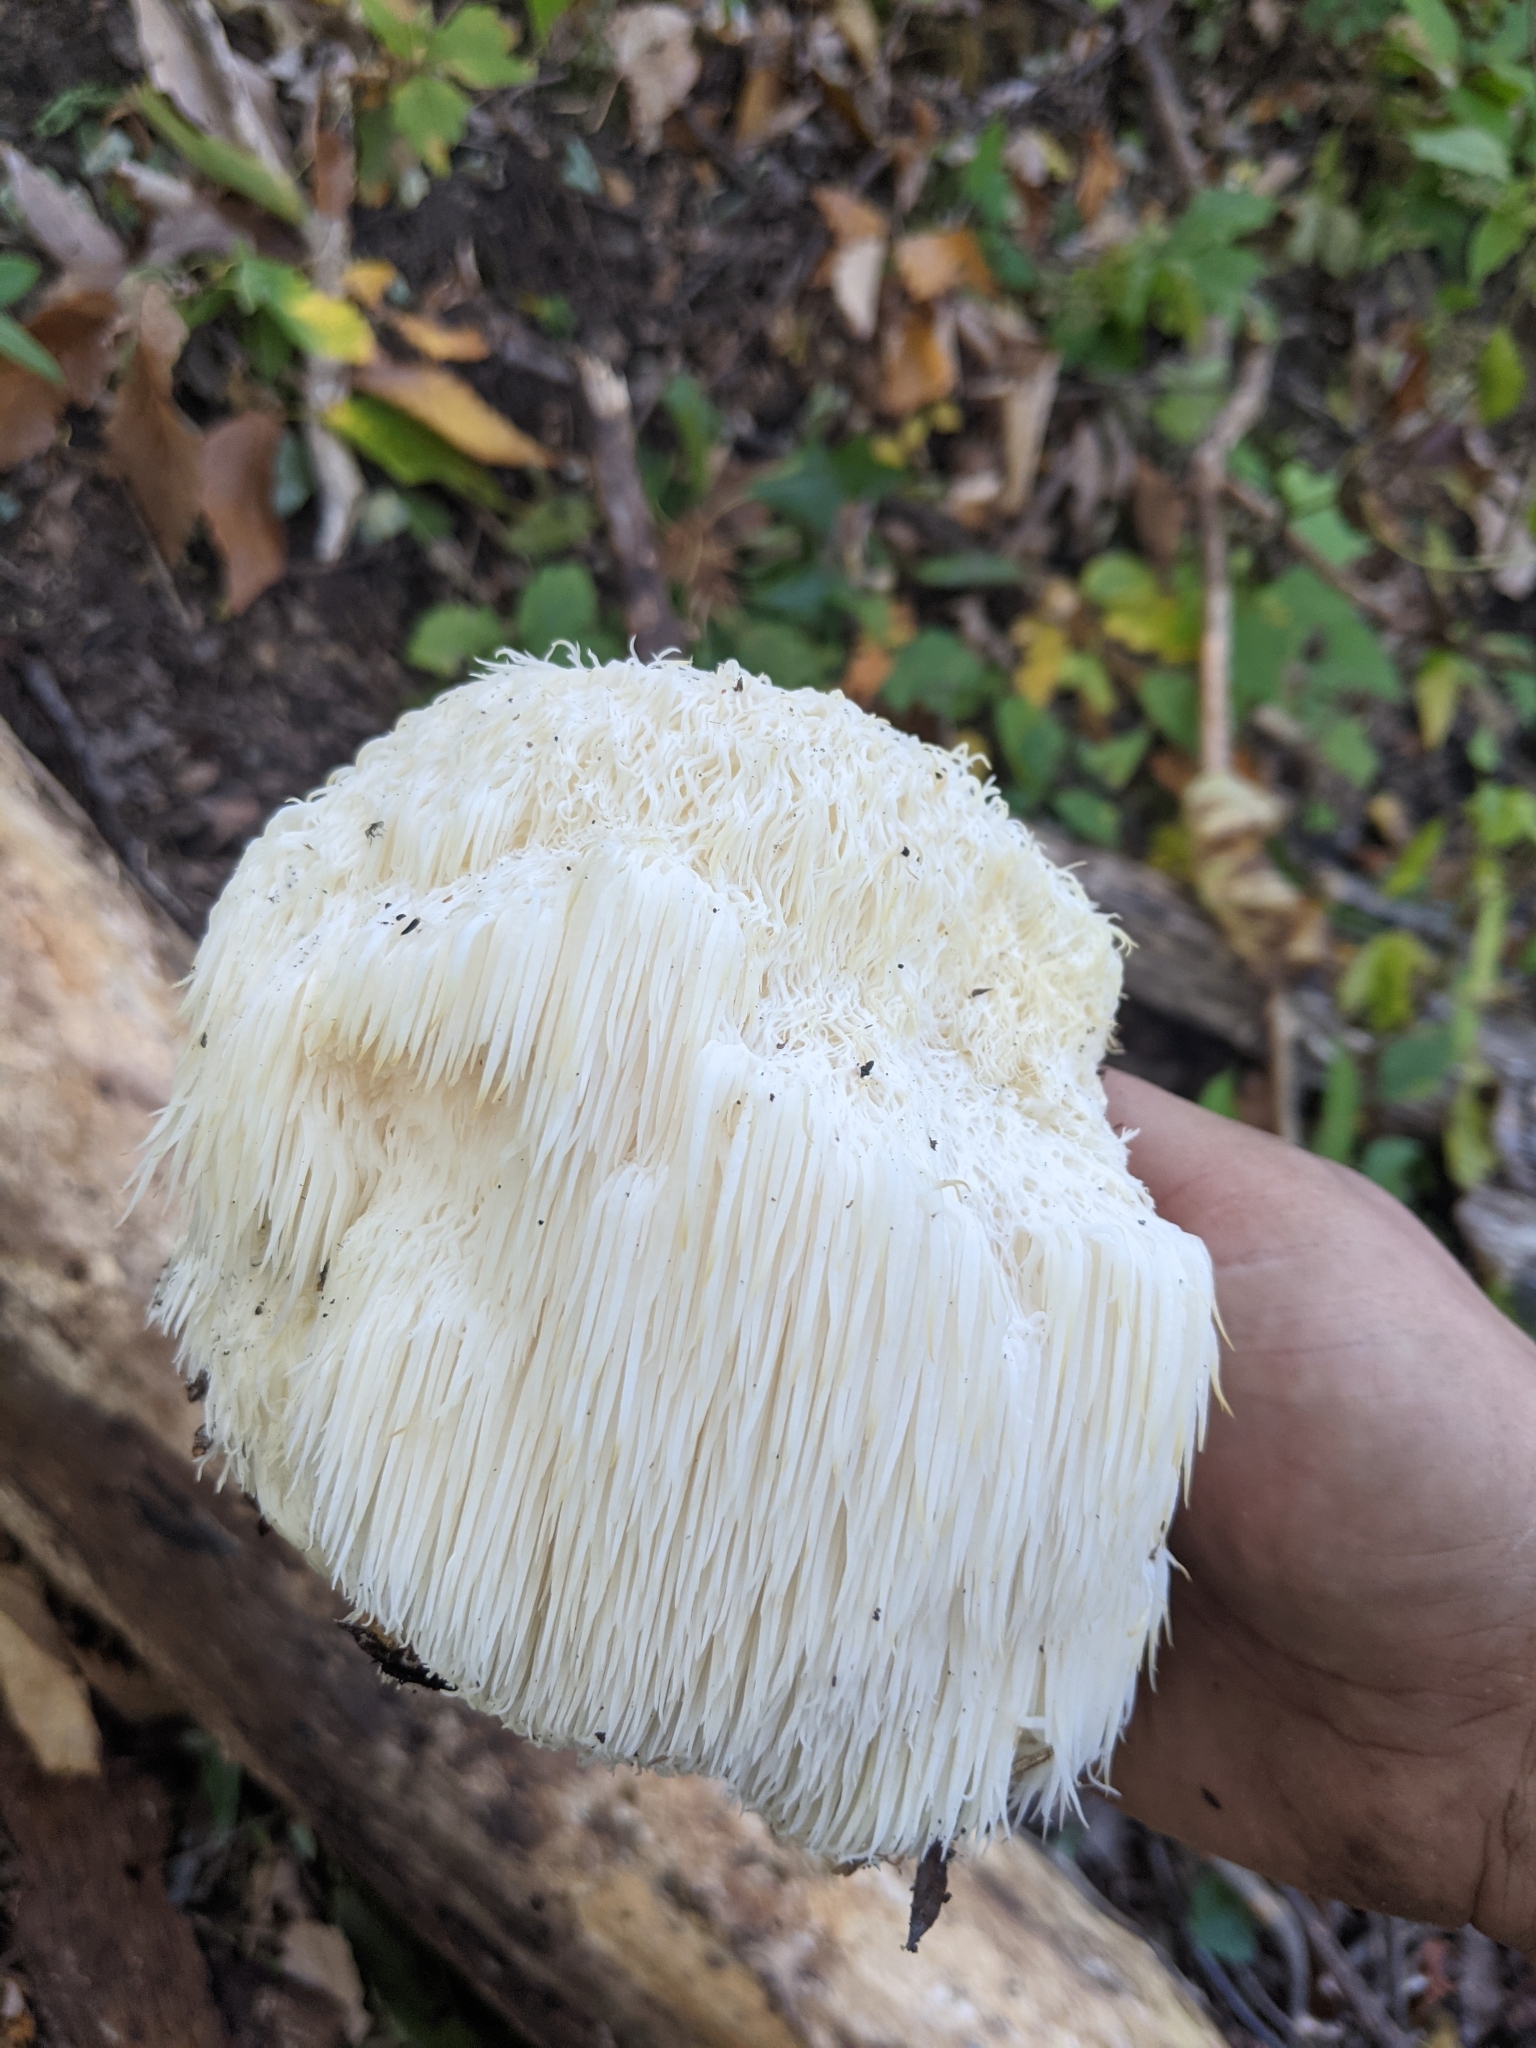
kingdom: Fungi
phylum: Basidiomycota
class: Agaricomycetes
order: Russulales
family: Hericiaceae
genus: Hericium
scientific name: Hericium erinaceus
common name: Bearded tooth
